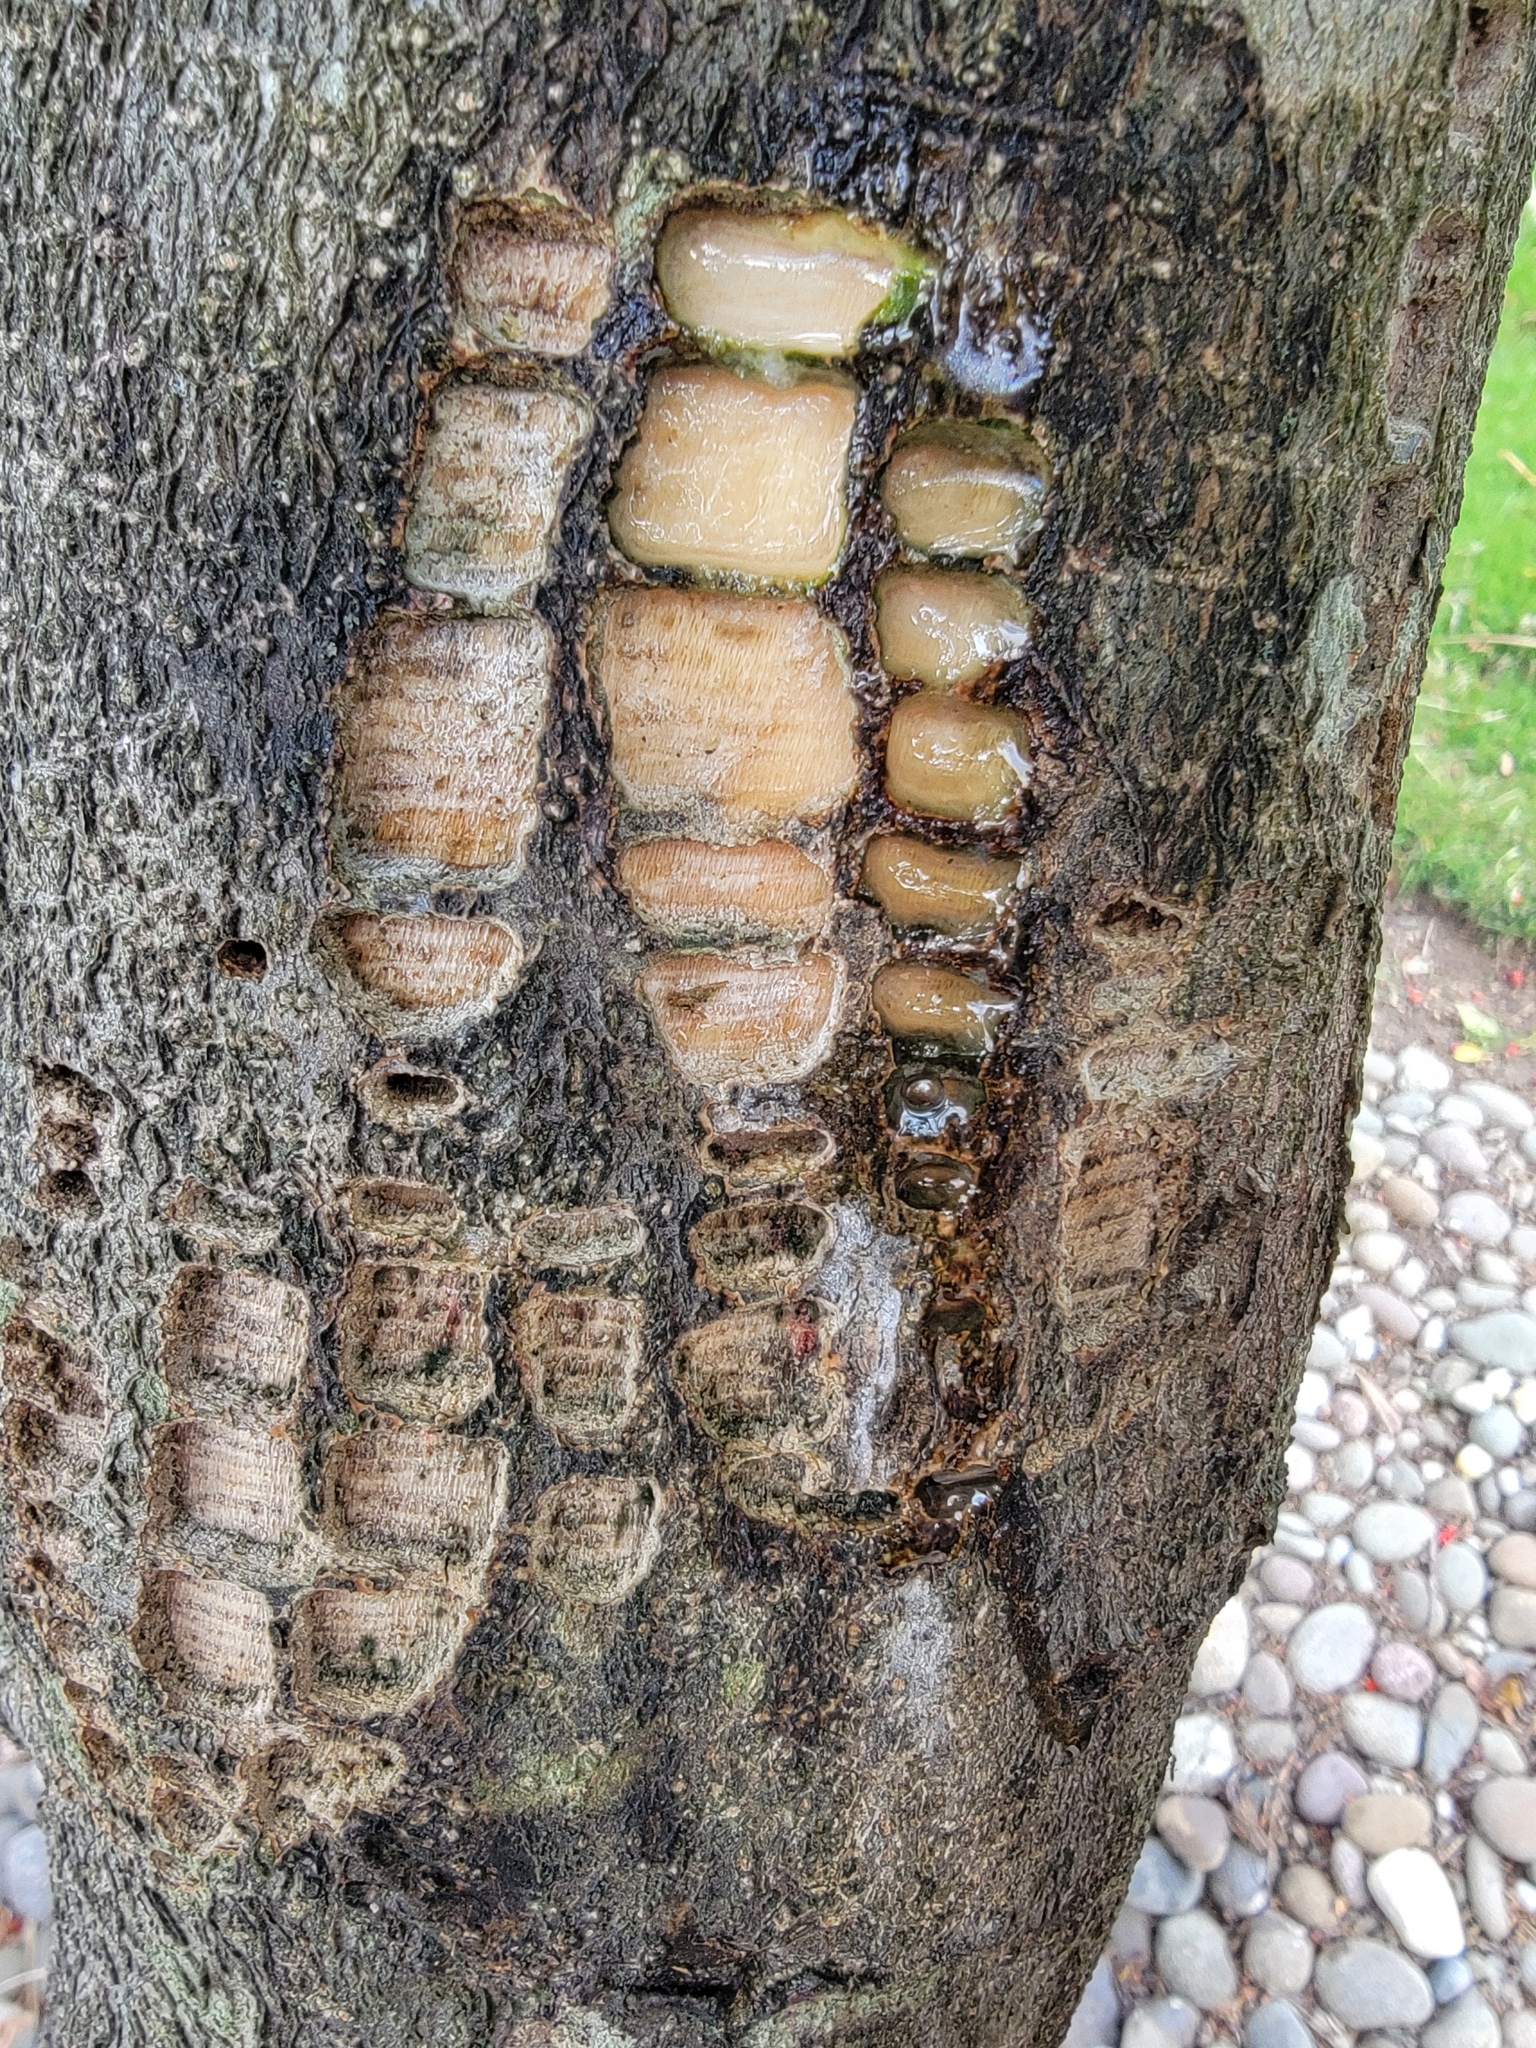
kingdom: Animalia
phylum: Chordata
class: Aves
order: Piciformes
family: Picidae
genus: Sphyrapicus
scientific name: Sphyrapicus varius
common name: Yellow-bellied sapsucker
